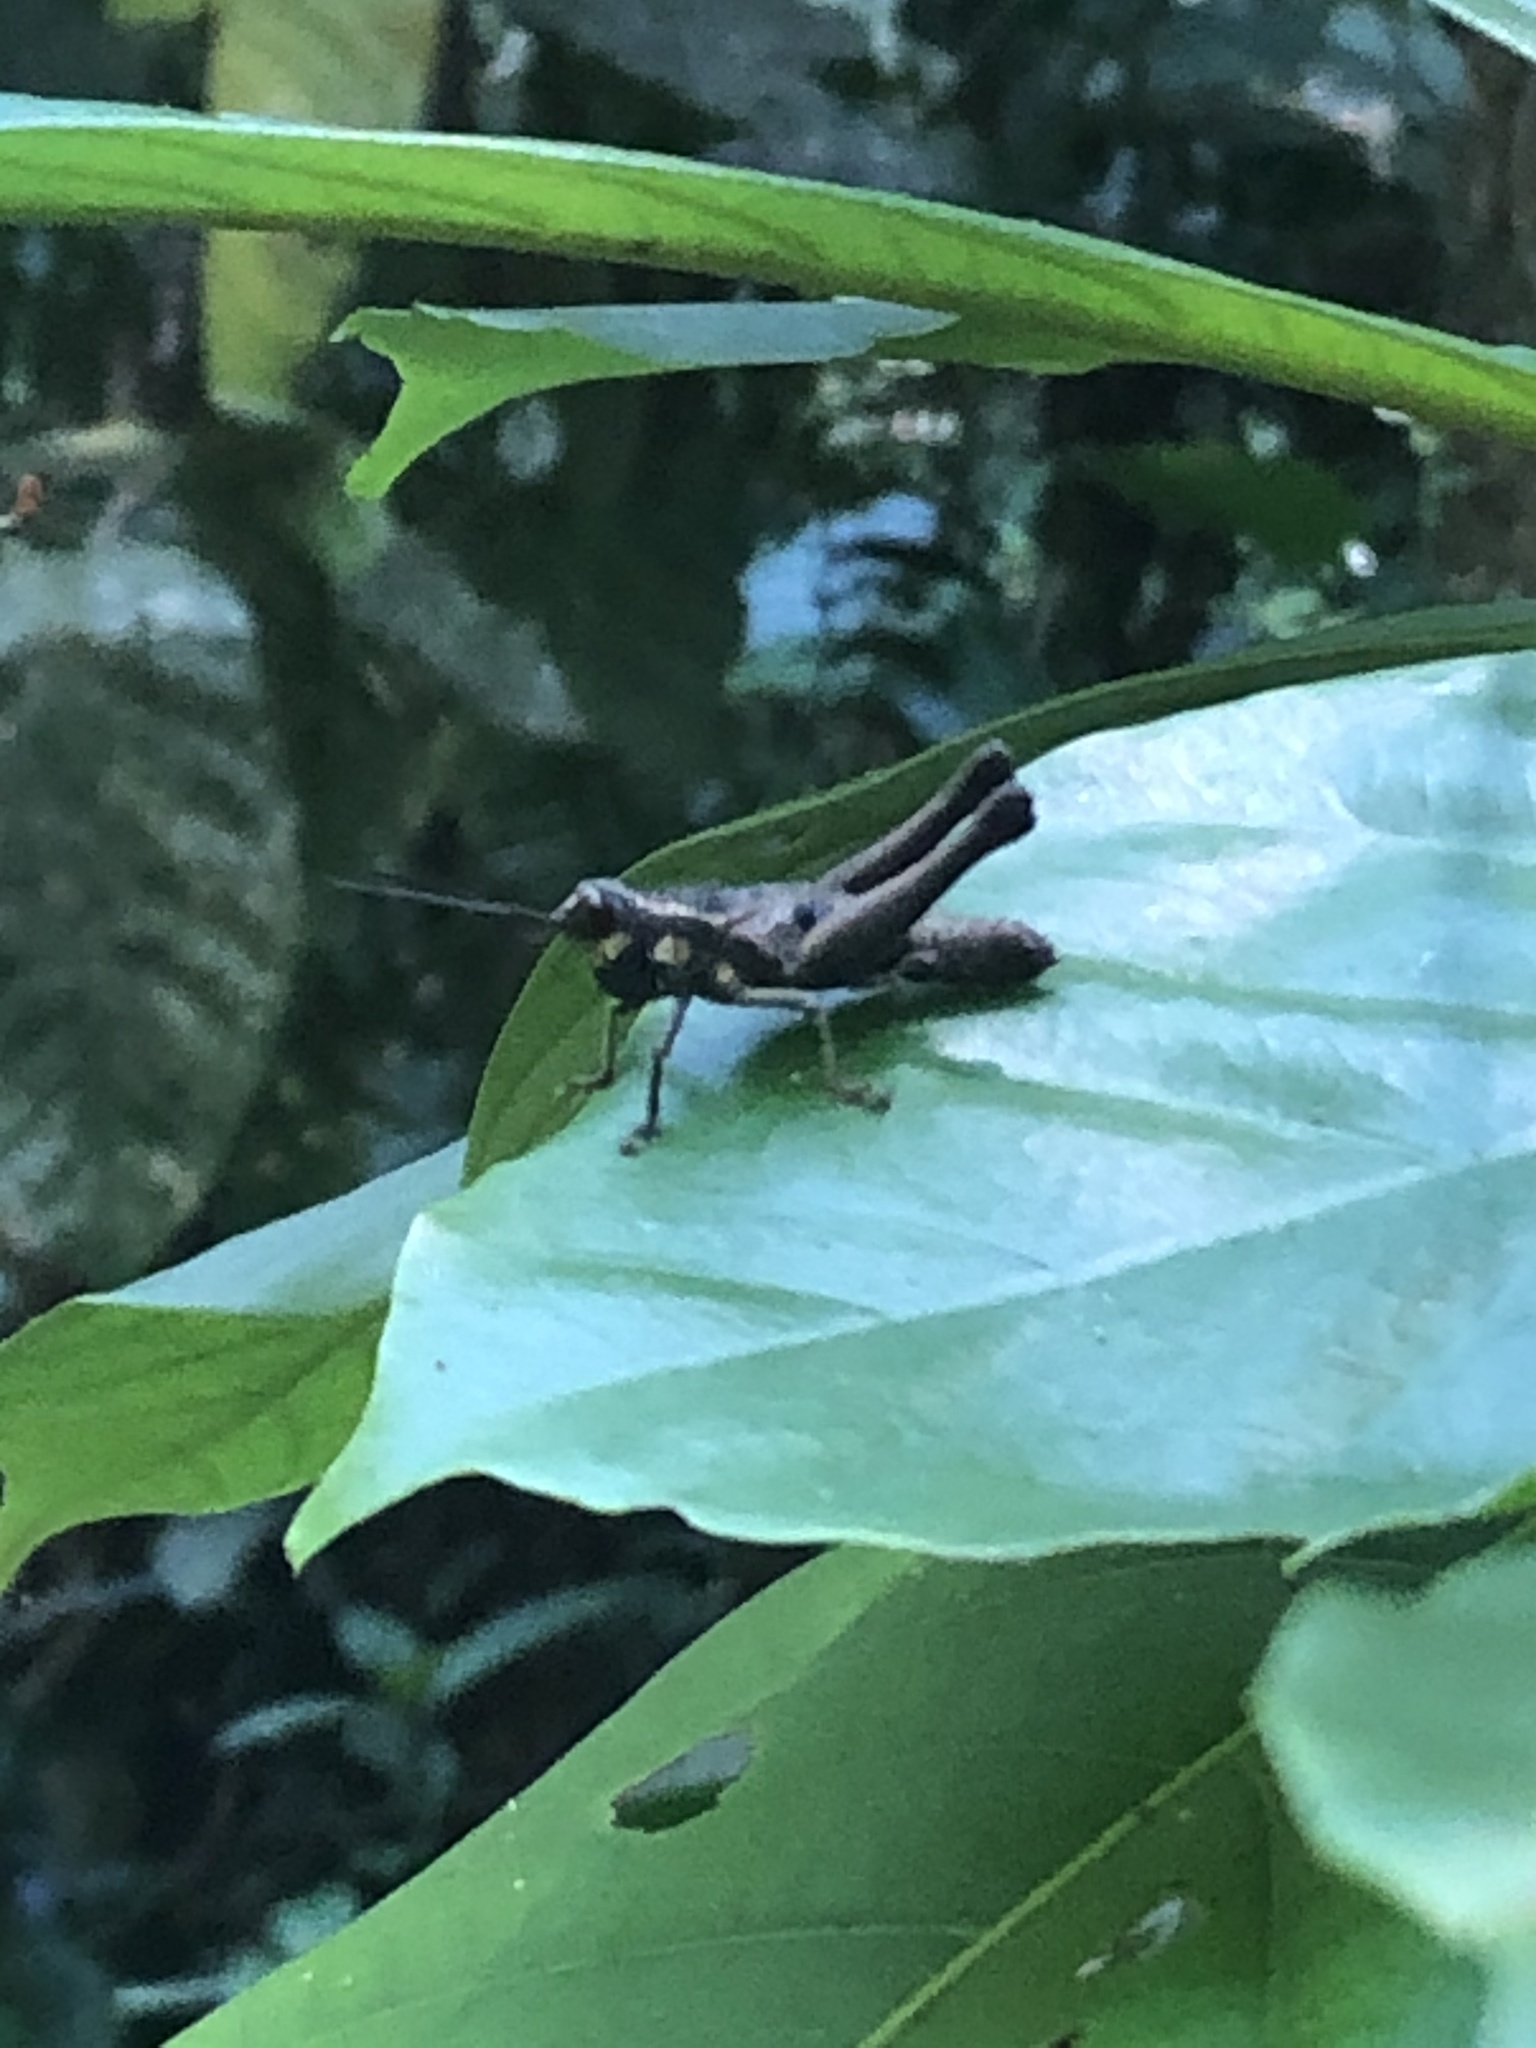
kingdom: Animalia
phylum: Arthropoda
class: Insecta
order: Orthoptera
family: Acrididae
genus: Stenelutracris
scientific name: Stenelutracris lignicola
